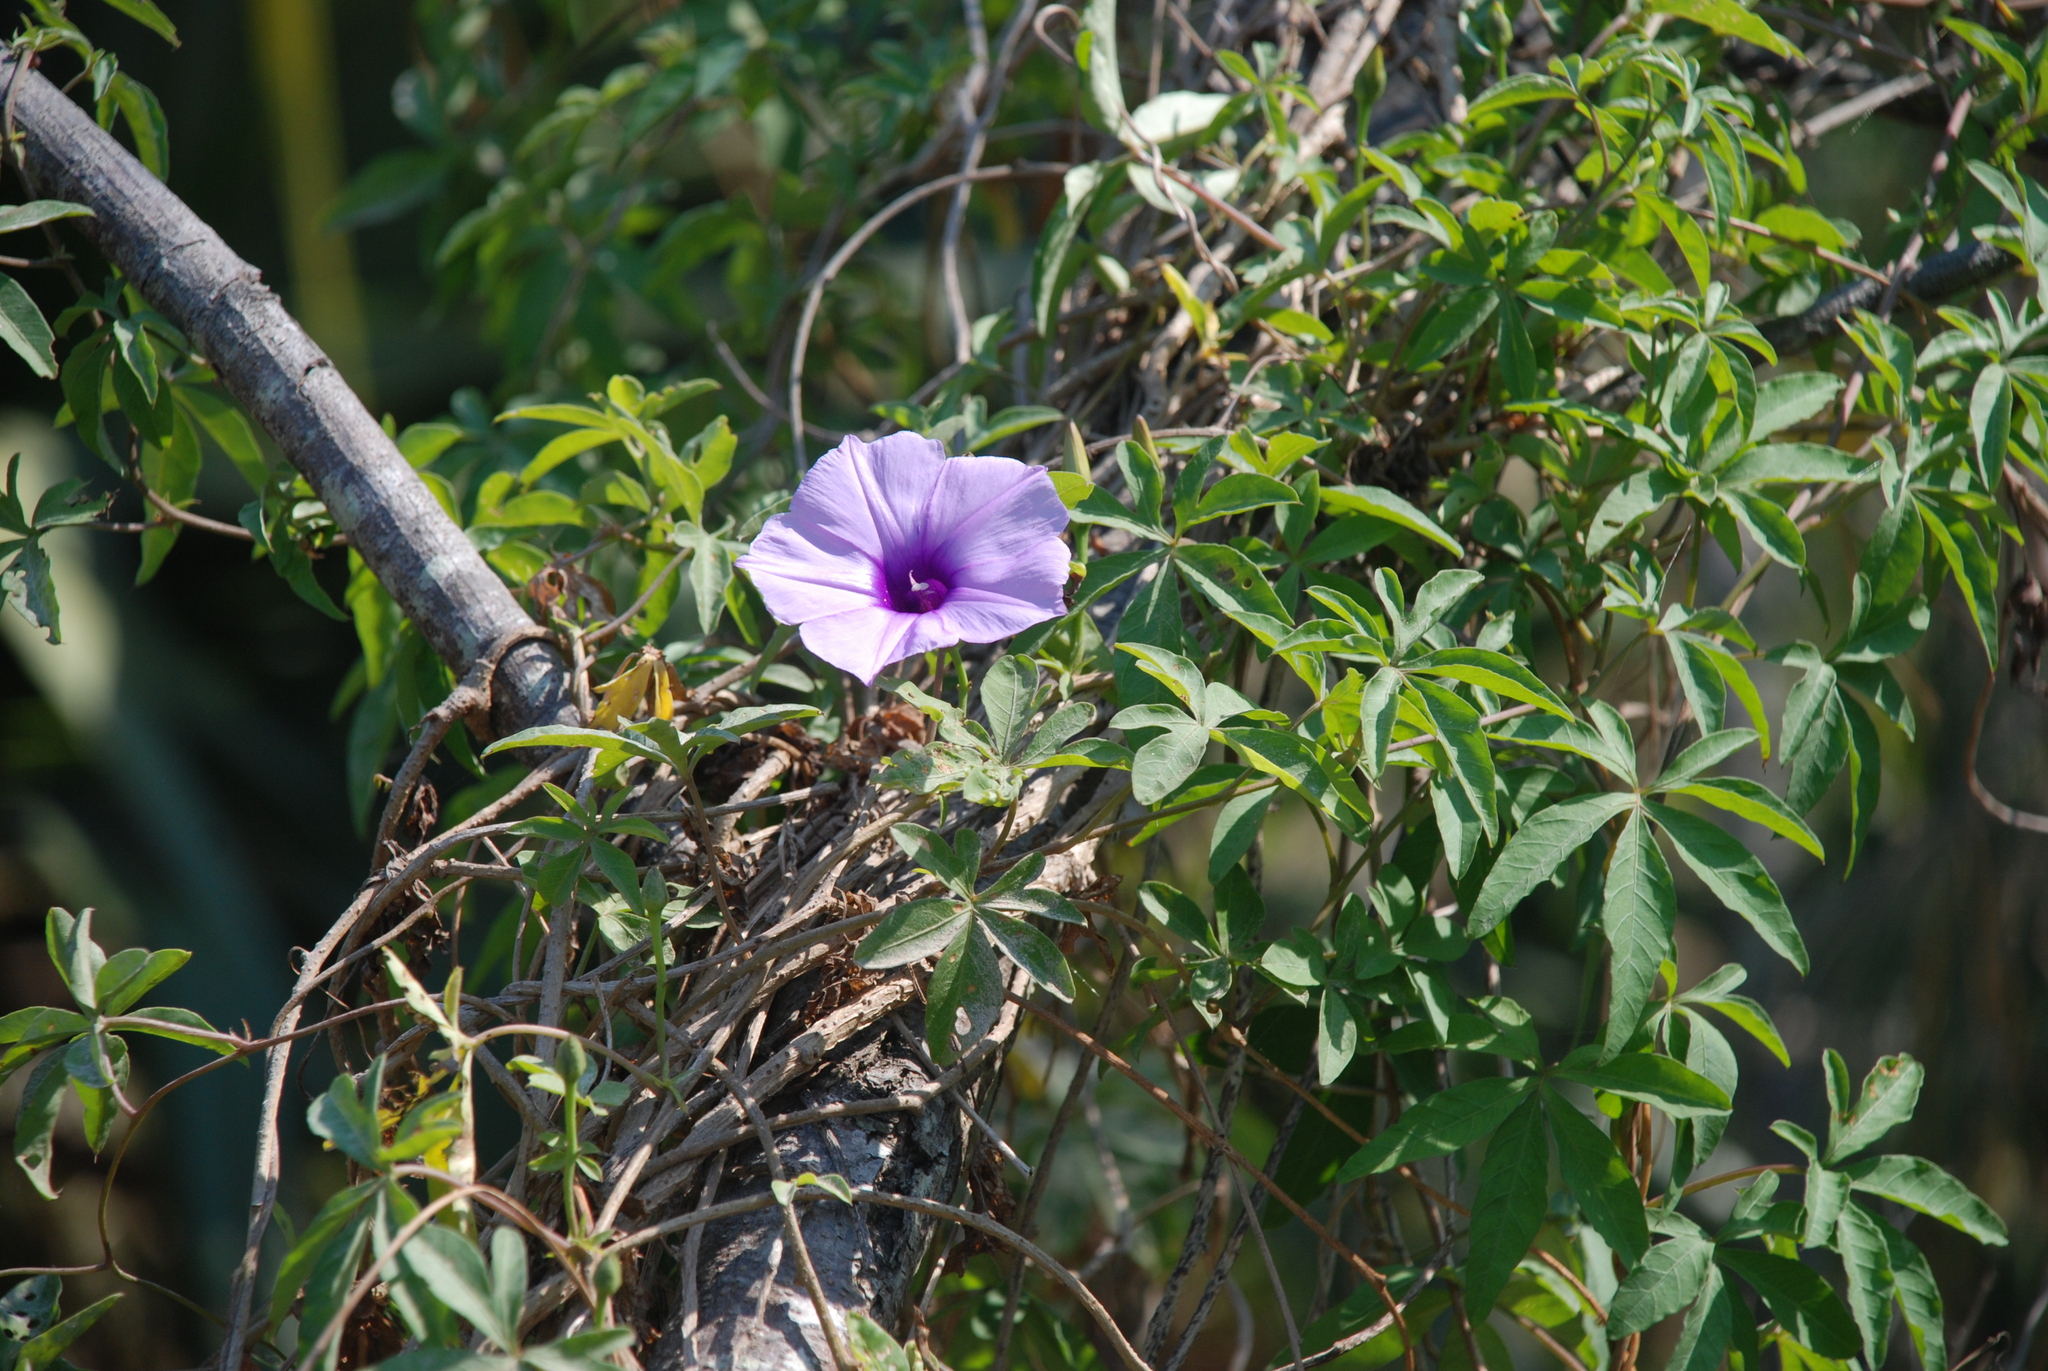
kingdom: Plantae
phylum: Tracheophyta
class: Magnoliopsida
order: Solanales
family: Convolvulaceae
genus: Ipomoea
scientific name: Ipomoea cairica
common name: Mile a minute vine
